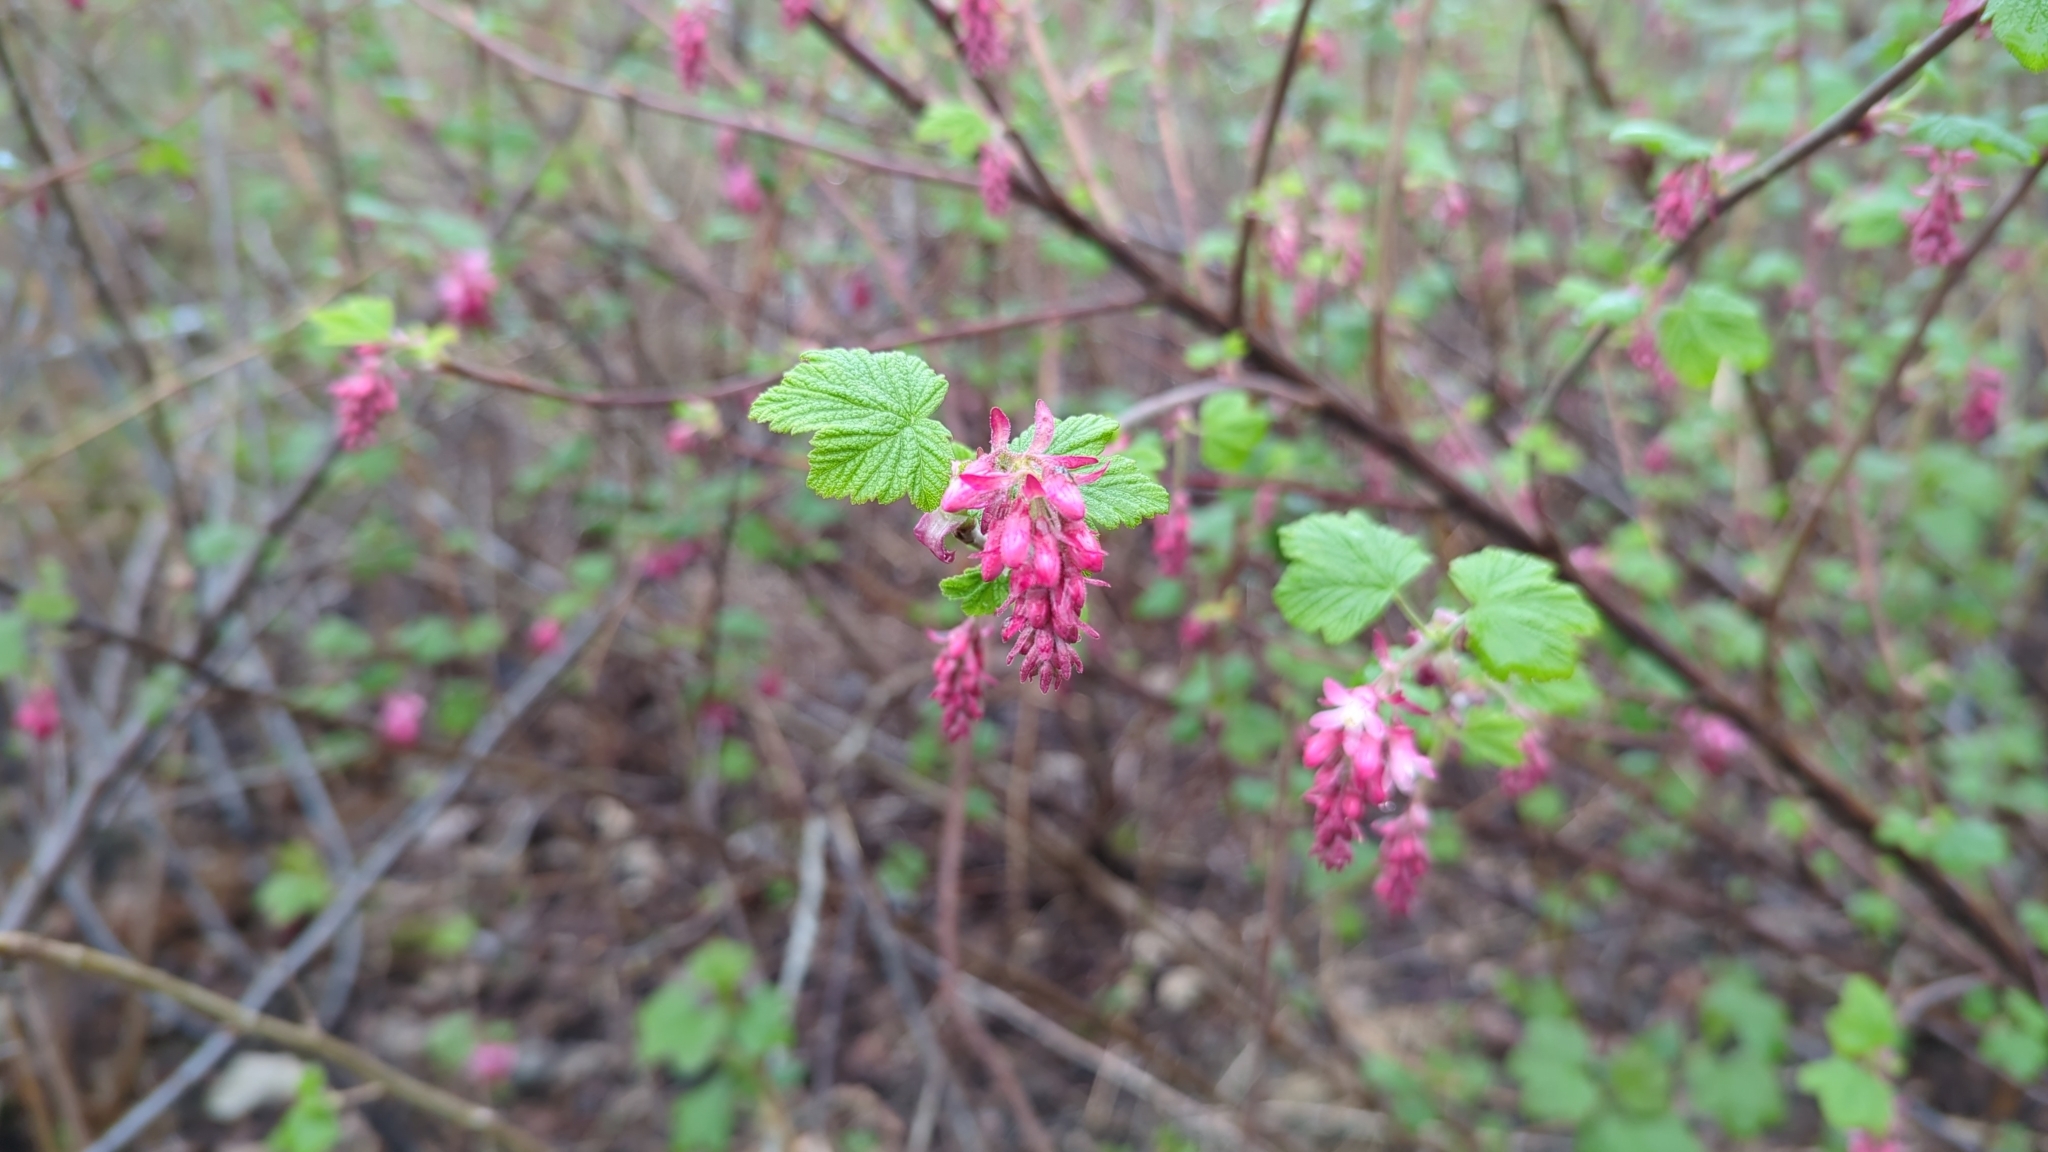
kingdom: Plantae
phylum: Tracheophyta
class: Magnoliopsida
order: Saxifragales
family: Grossulariaceae
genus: Ribes
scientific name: Ribes sanguineum
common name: Flowering currant
